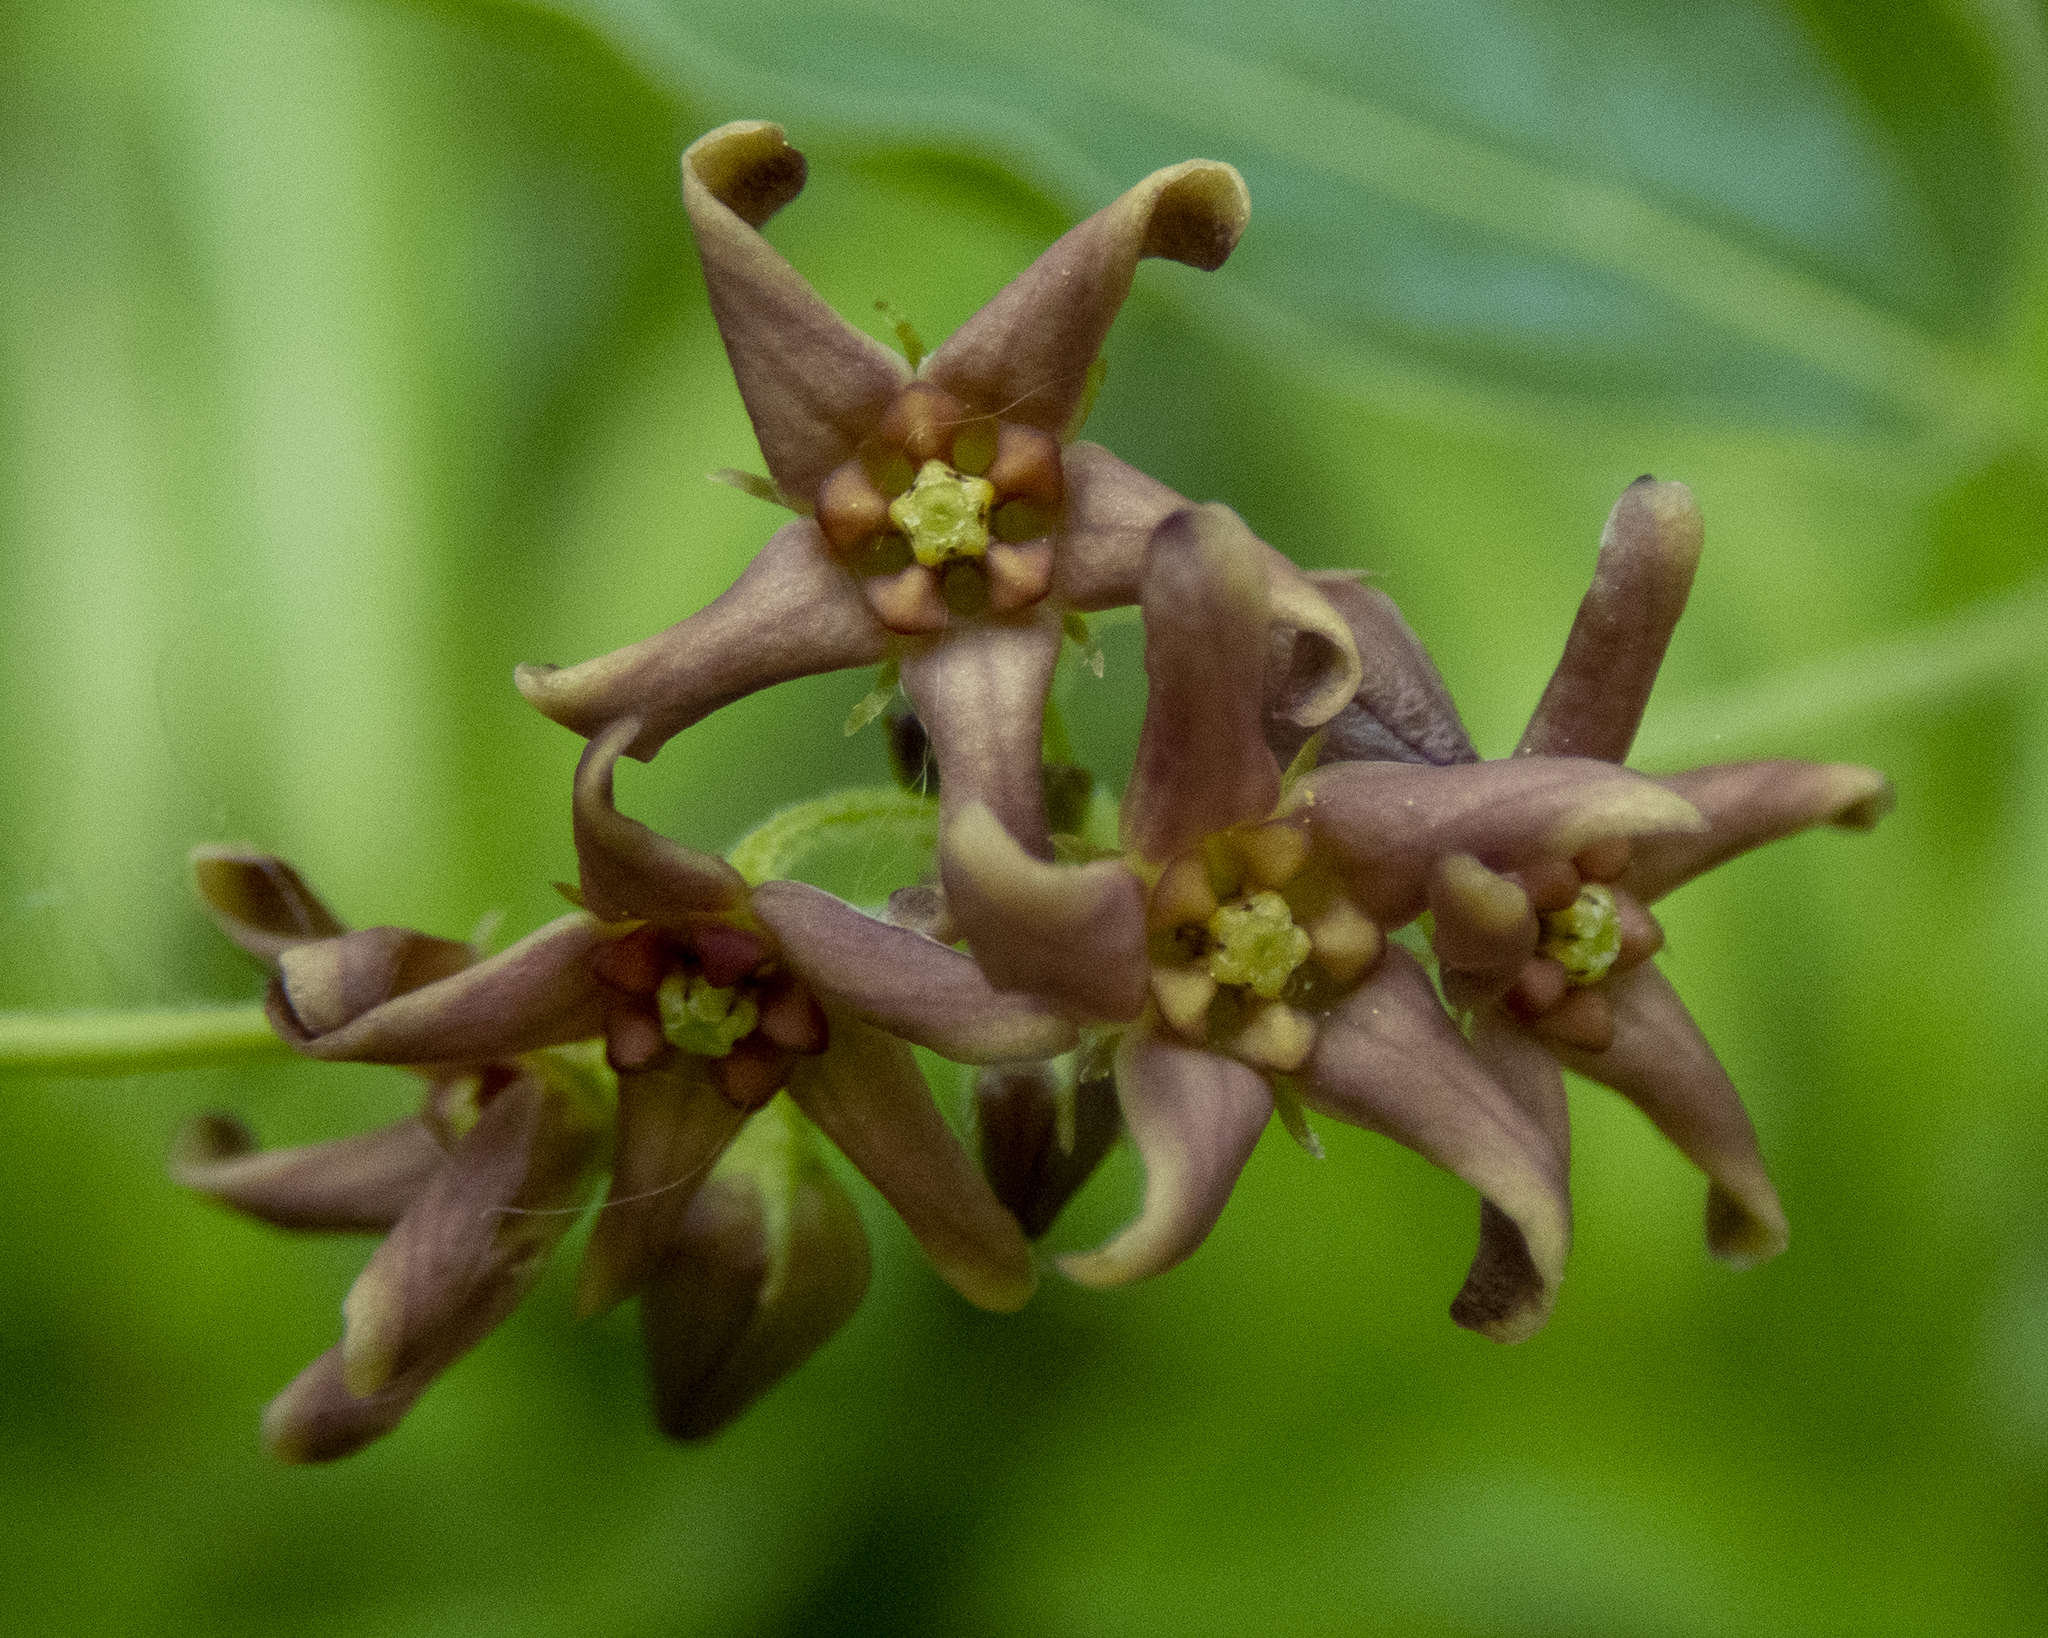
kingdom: Plantae
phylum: Tracheophyta
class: Magnoliopsida
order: Gentianales
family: Apocynaceae
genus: Vincetoxicum
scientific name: Vincetoxicum rossicum
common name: Dog-strangling vine
